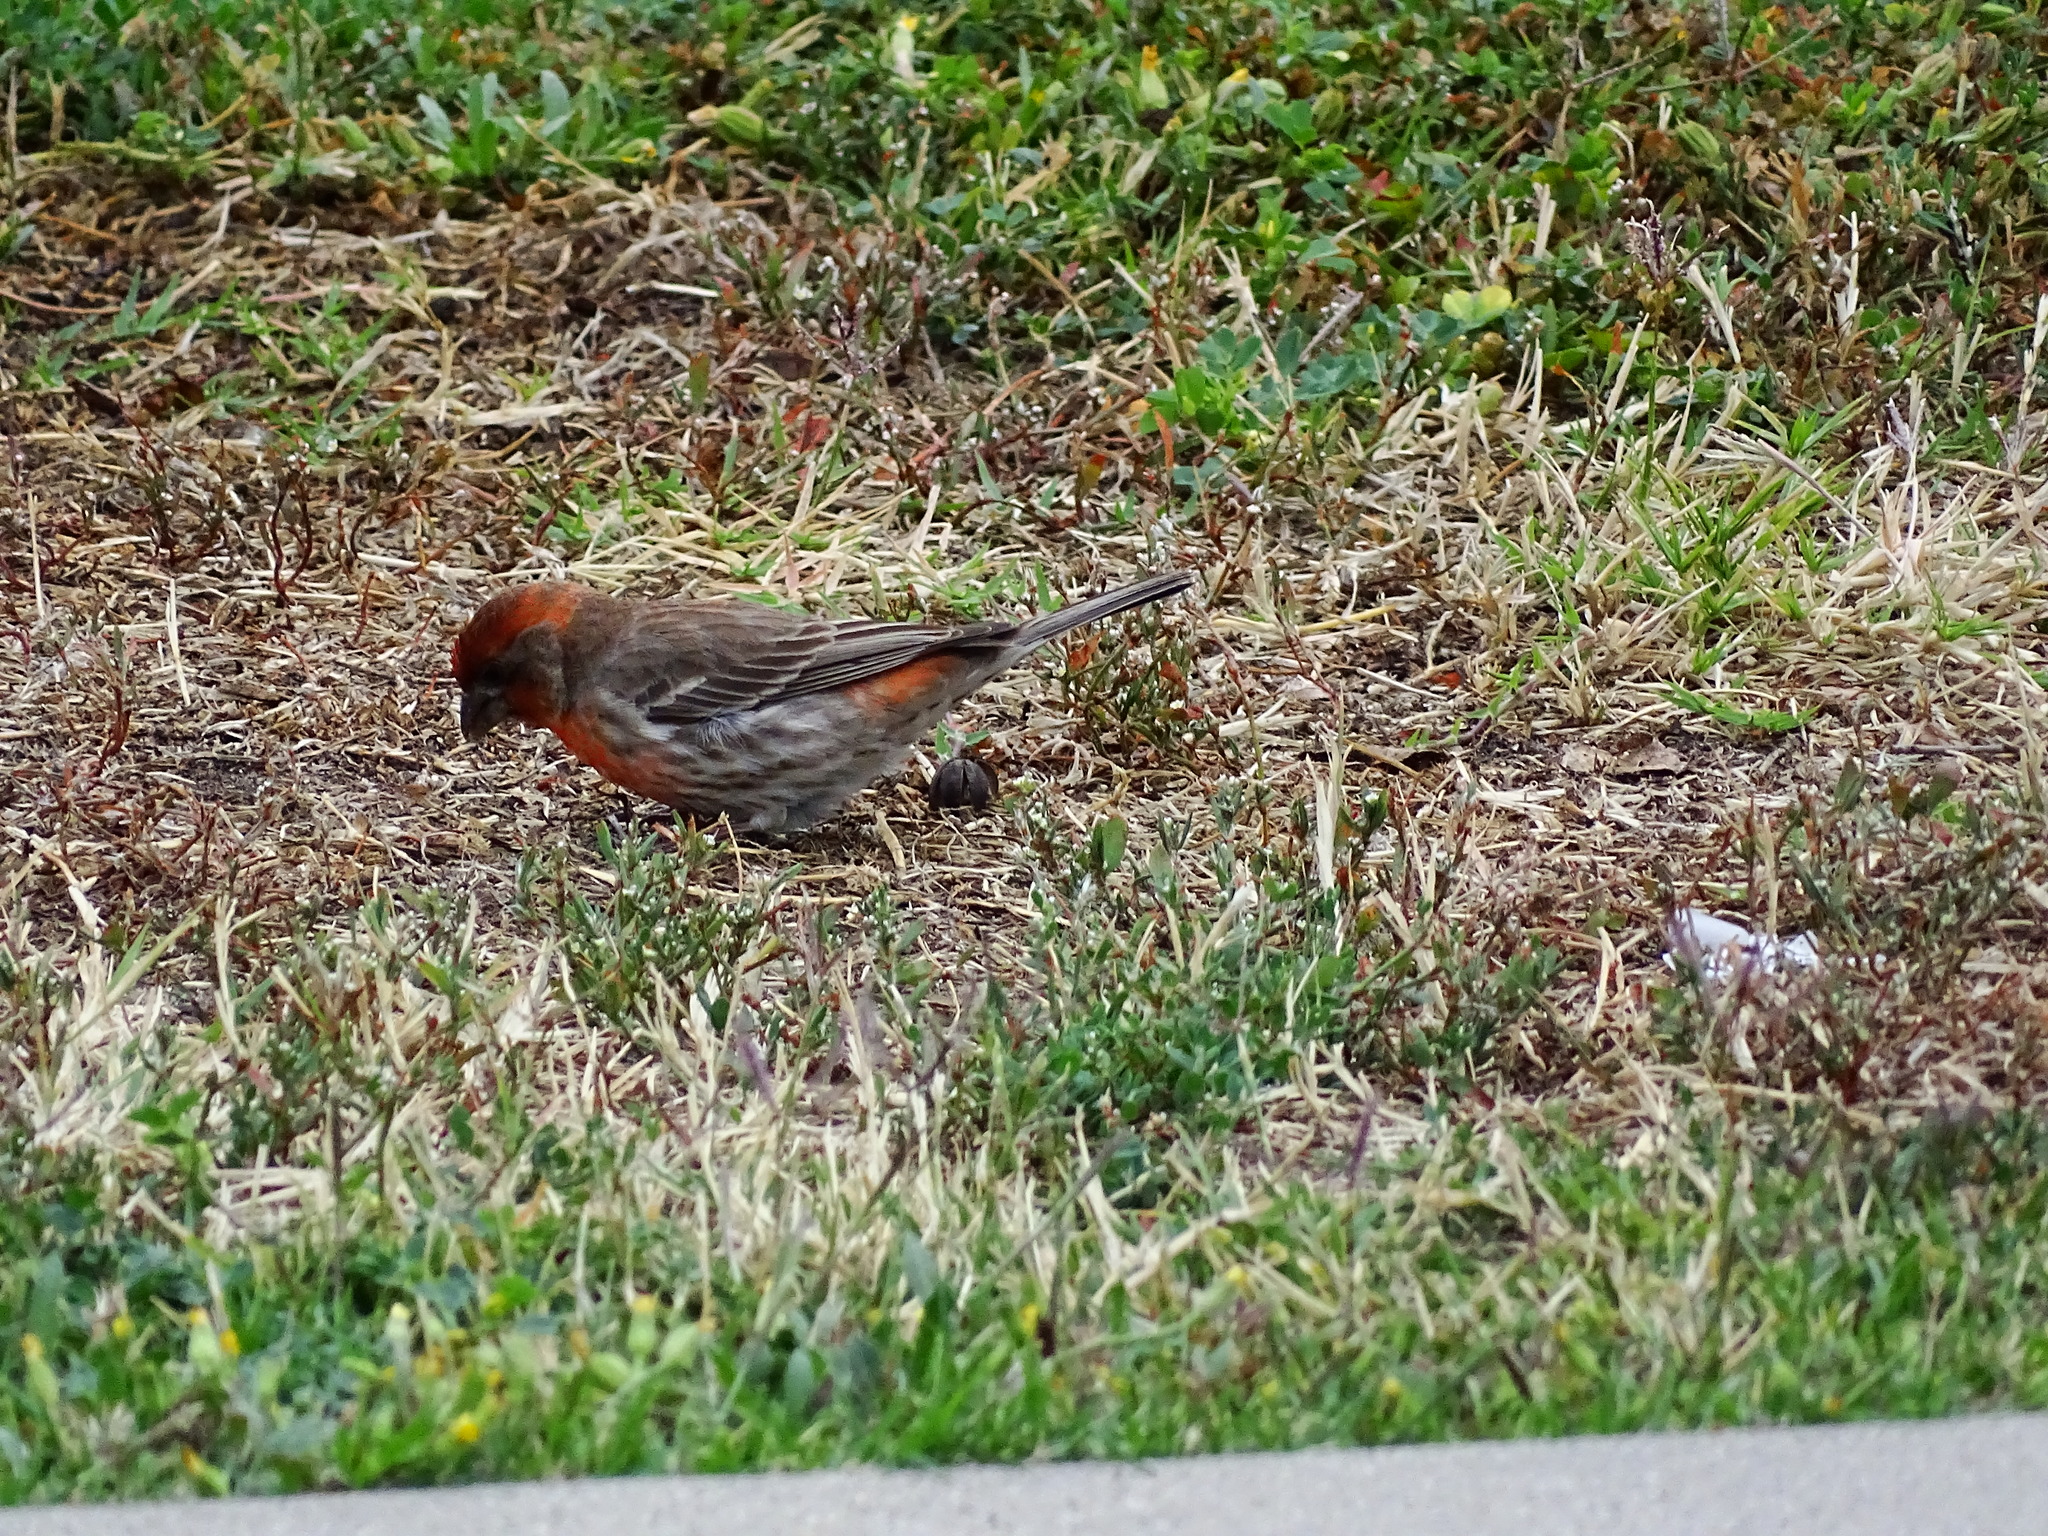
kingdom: Animalia
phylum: Chordata
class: Aves
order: Passeriformes
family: Fringillidae
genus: Haemorhous
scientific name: Haemorhous mexicanus
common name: House finch
